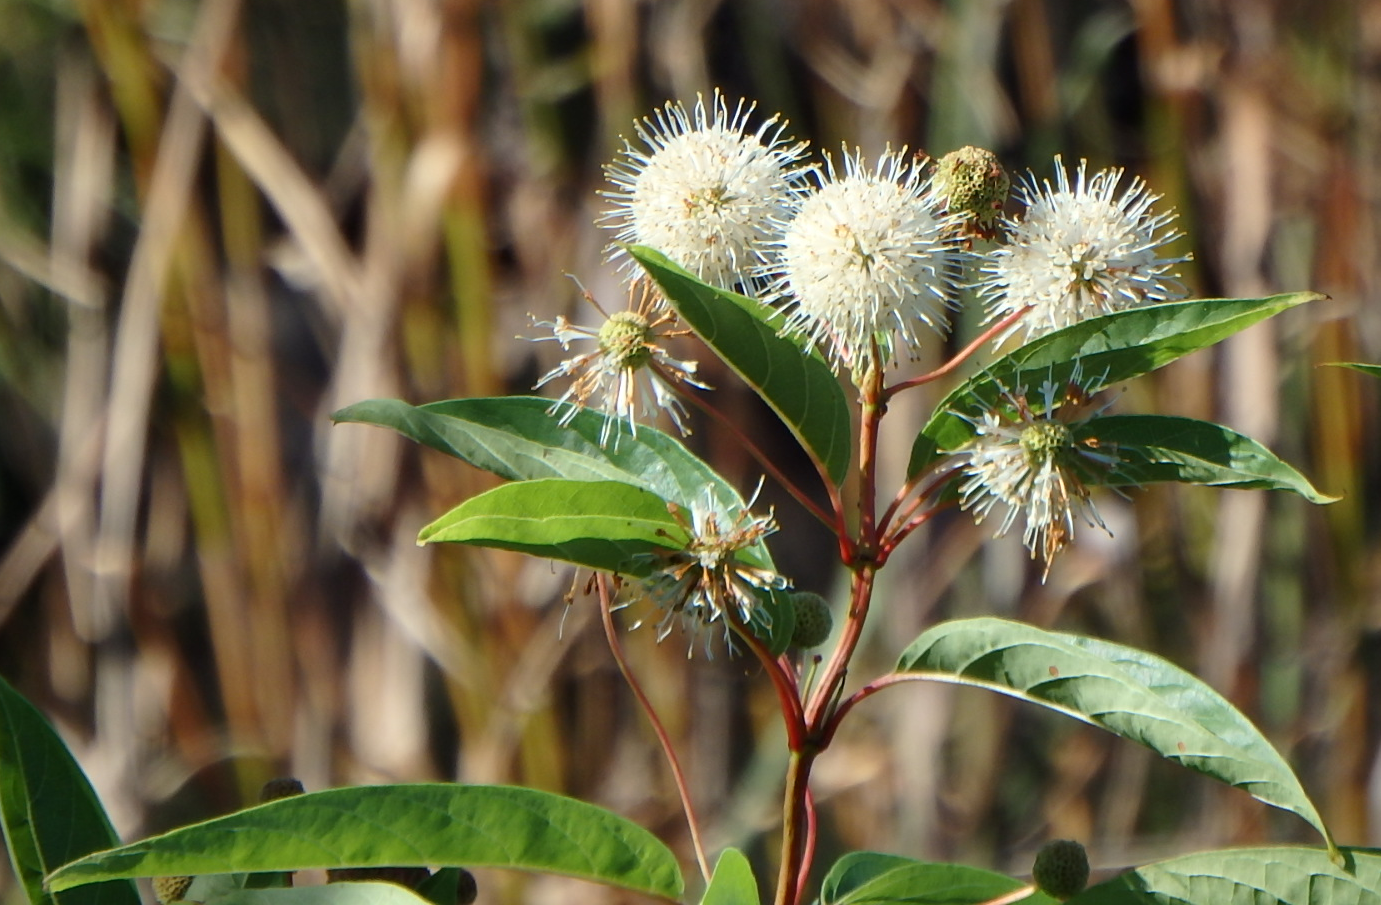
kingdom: Plantae
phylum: Tracheophyta
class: Magnoliopsida
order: Gentianales
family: Rubiaceae
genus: Cephalanthus
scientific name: Cephalanthus occidentalis
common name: Button-willow
